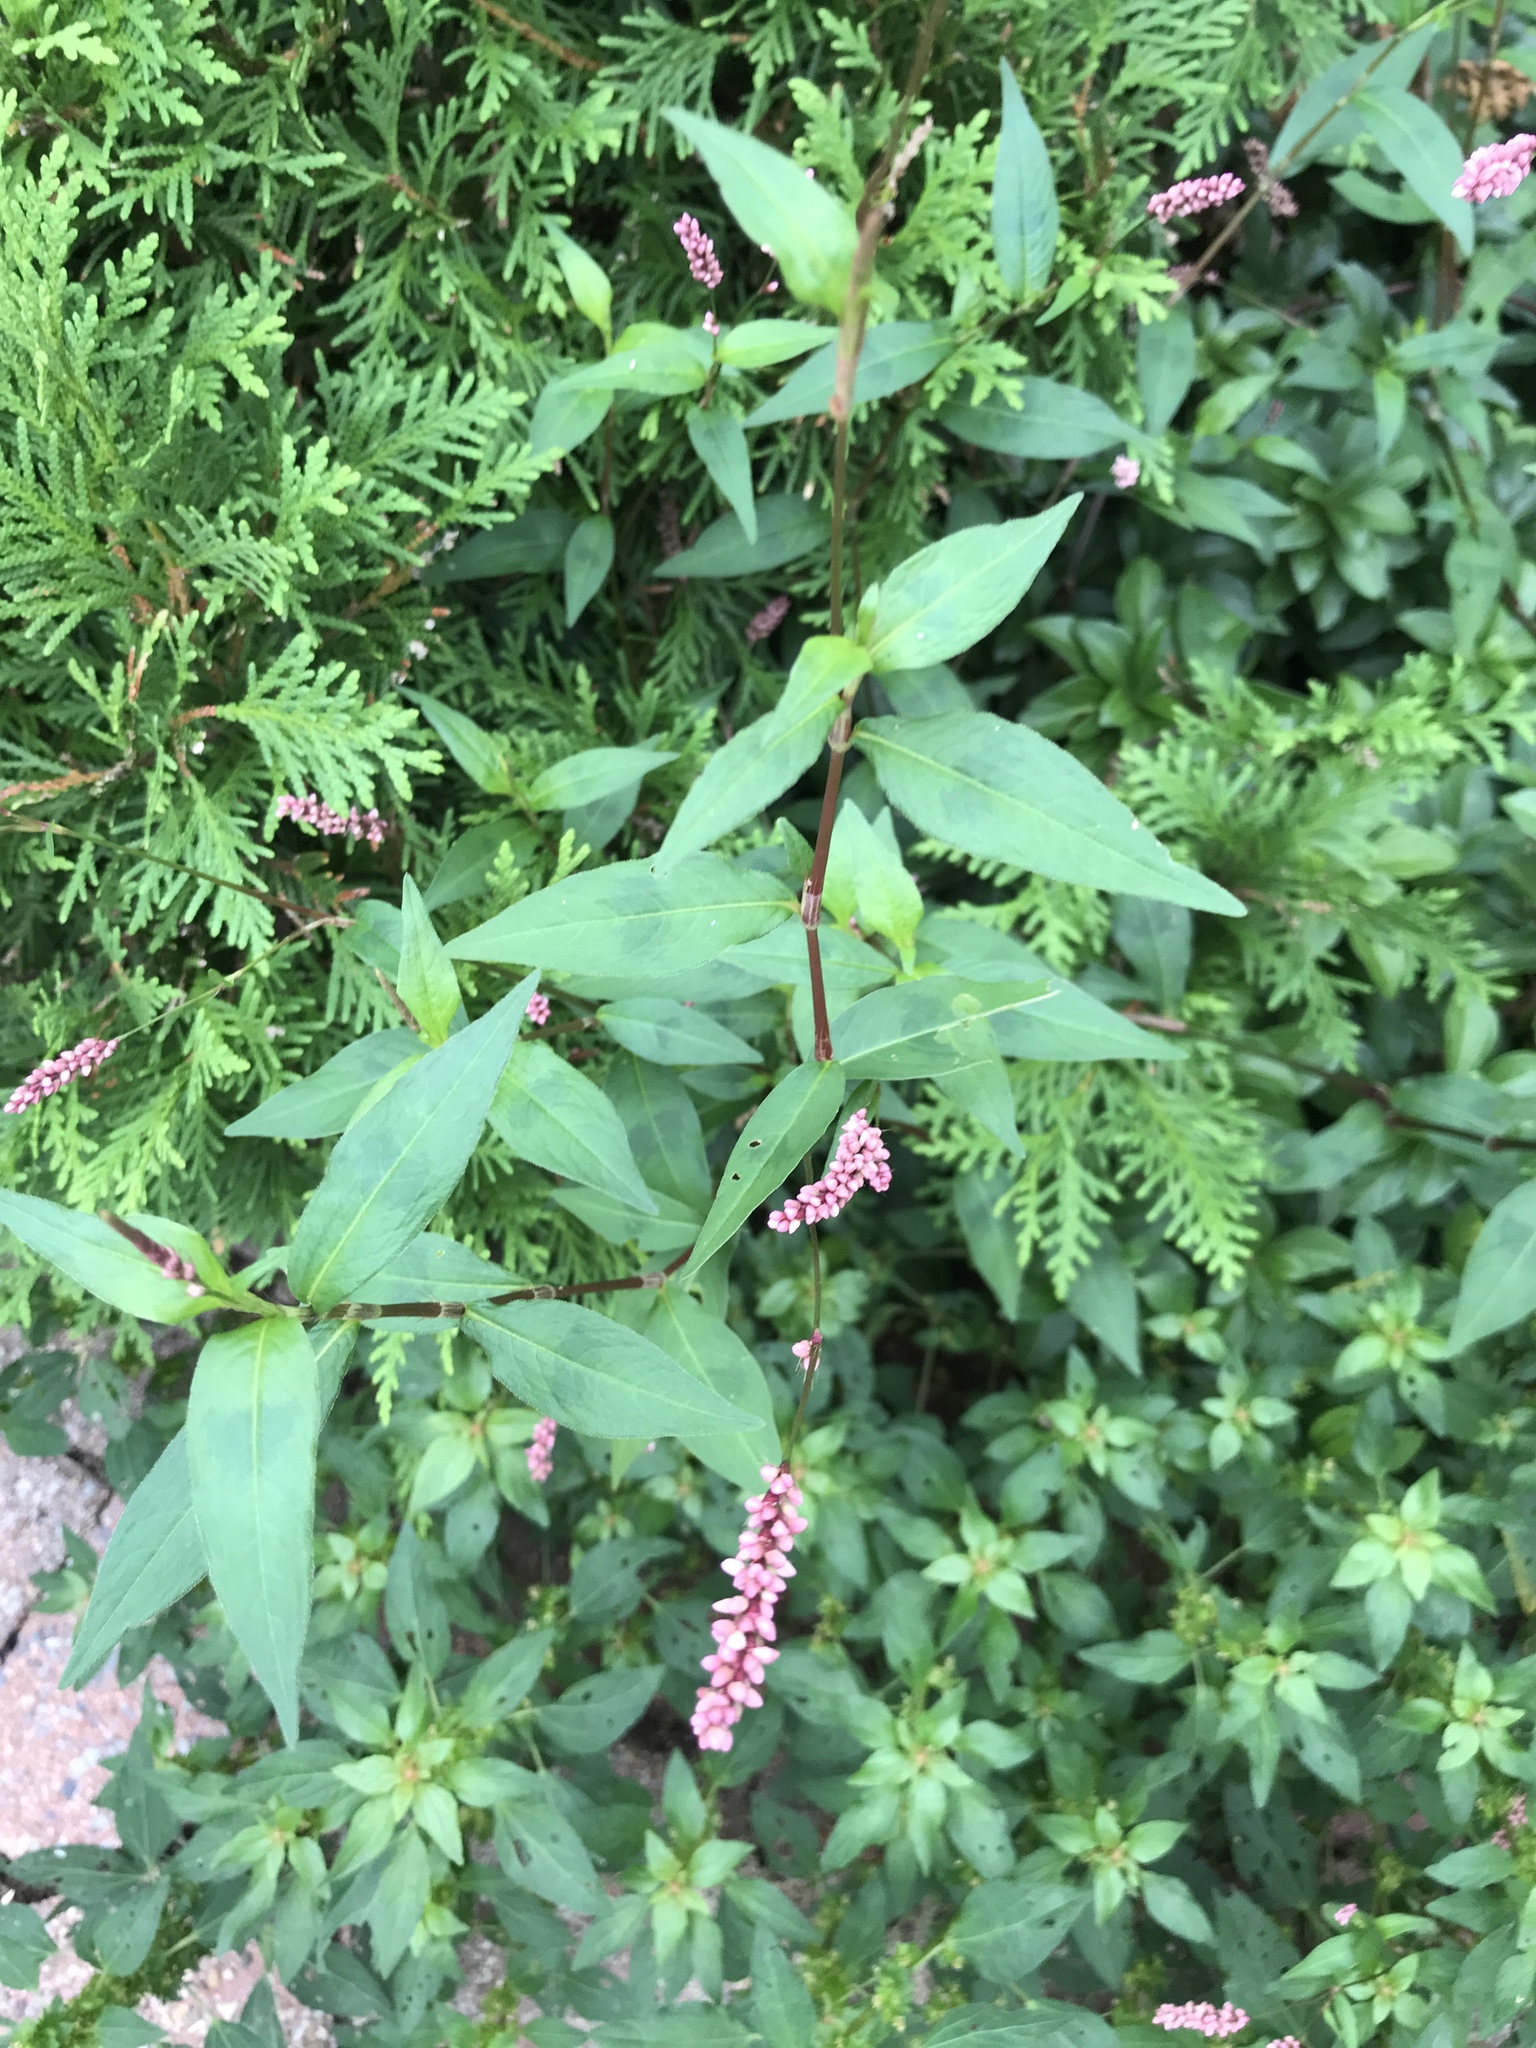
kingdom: Plantae
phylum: Tracheophyta
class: Magnoliopsida
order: Caryophyllales
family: Polygonaceae
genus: Persicaria
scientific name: Persicaria longiseta
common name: Bristly lady's-thumb
